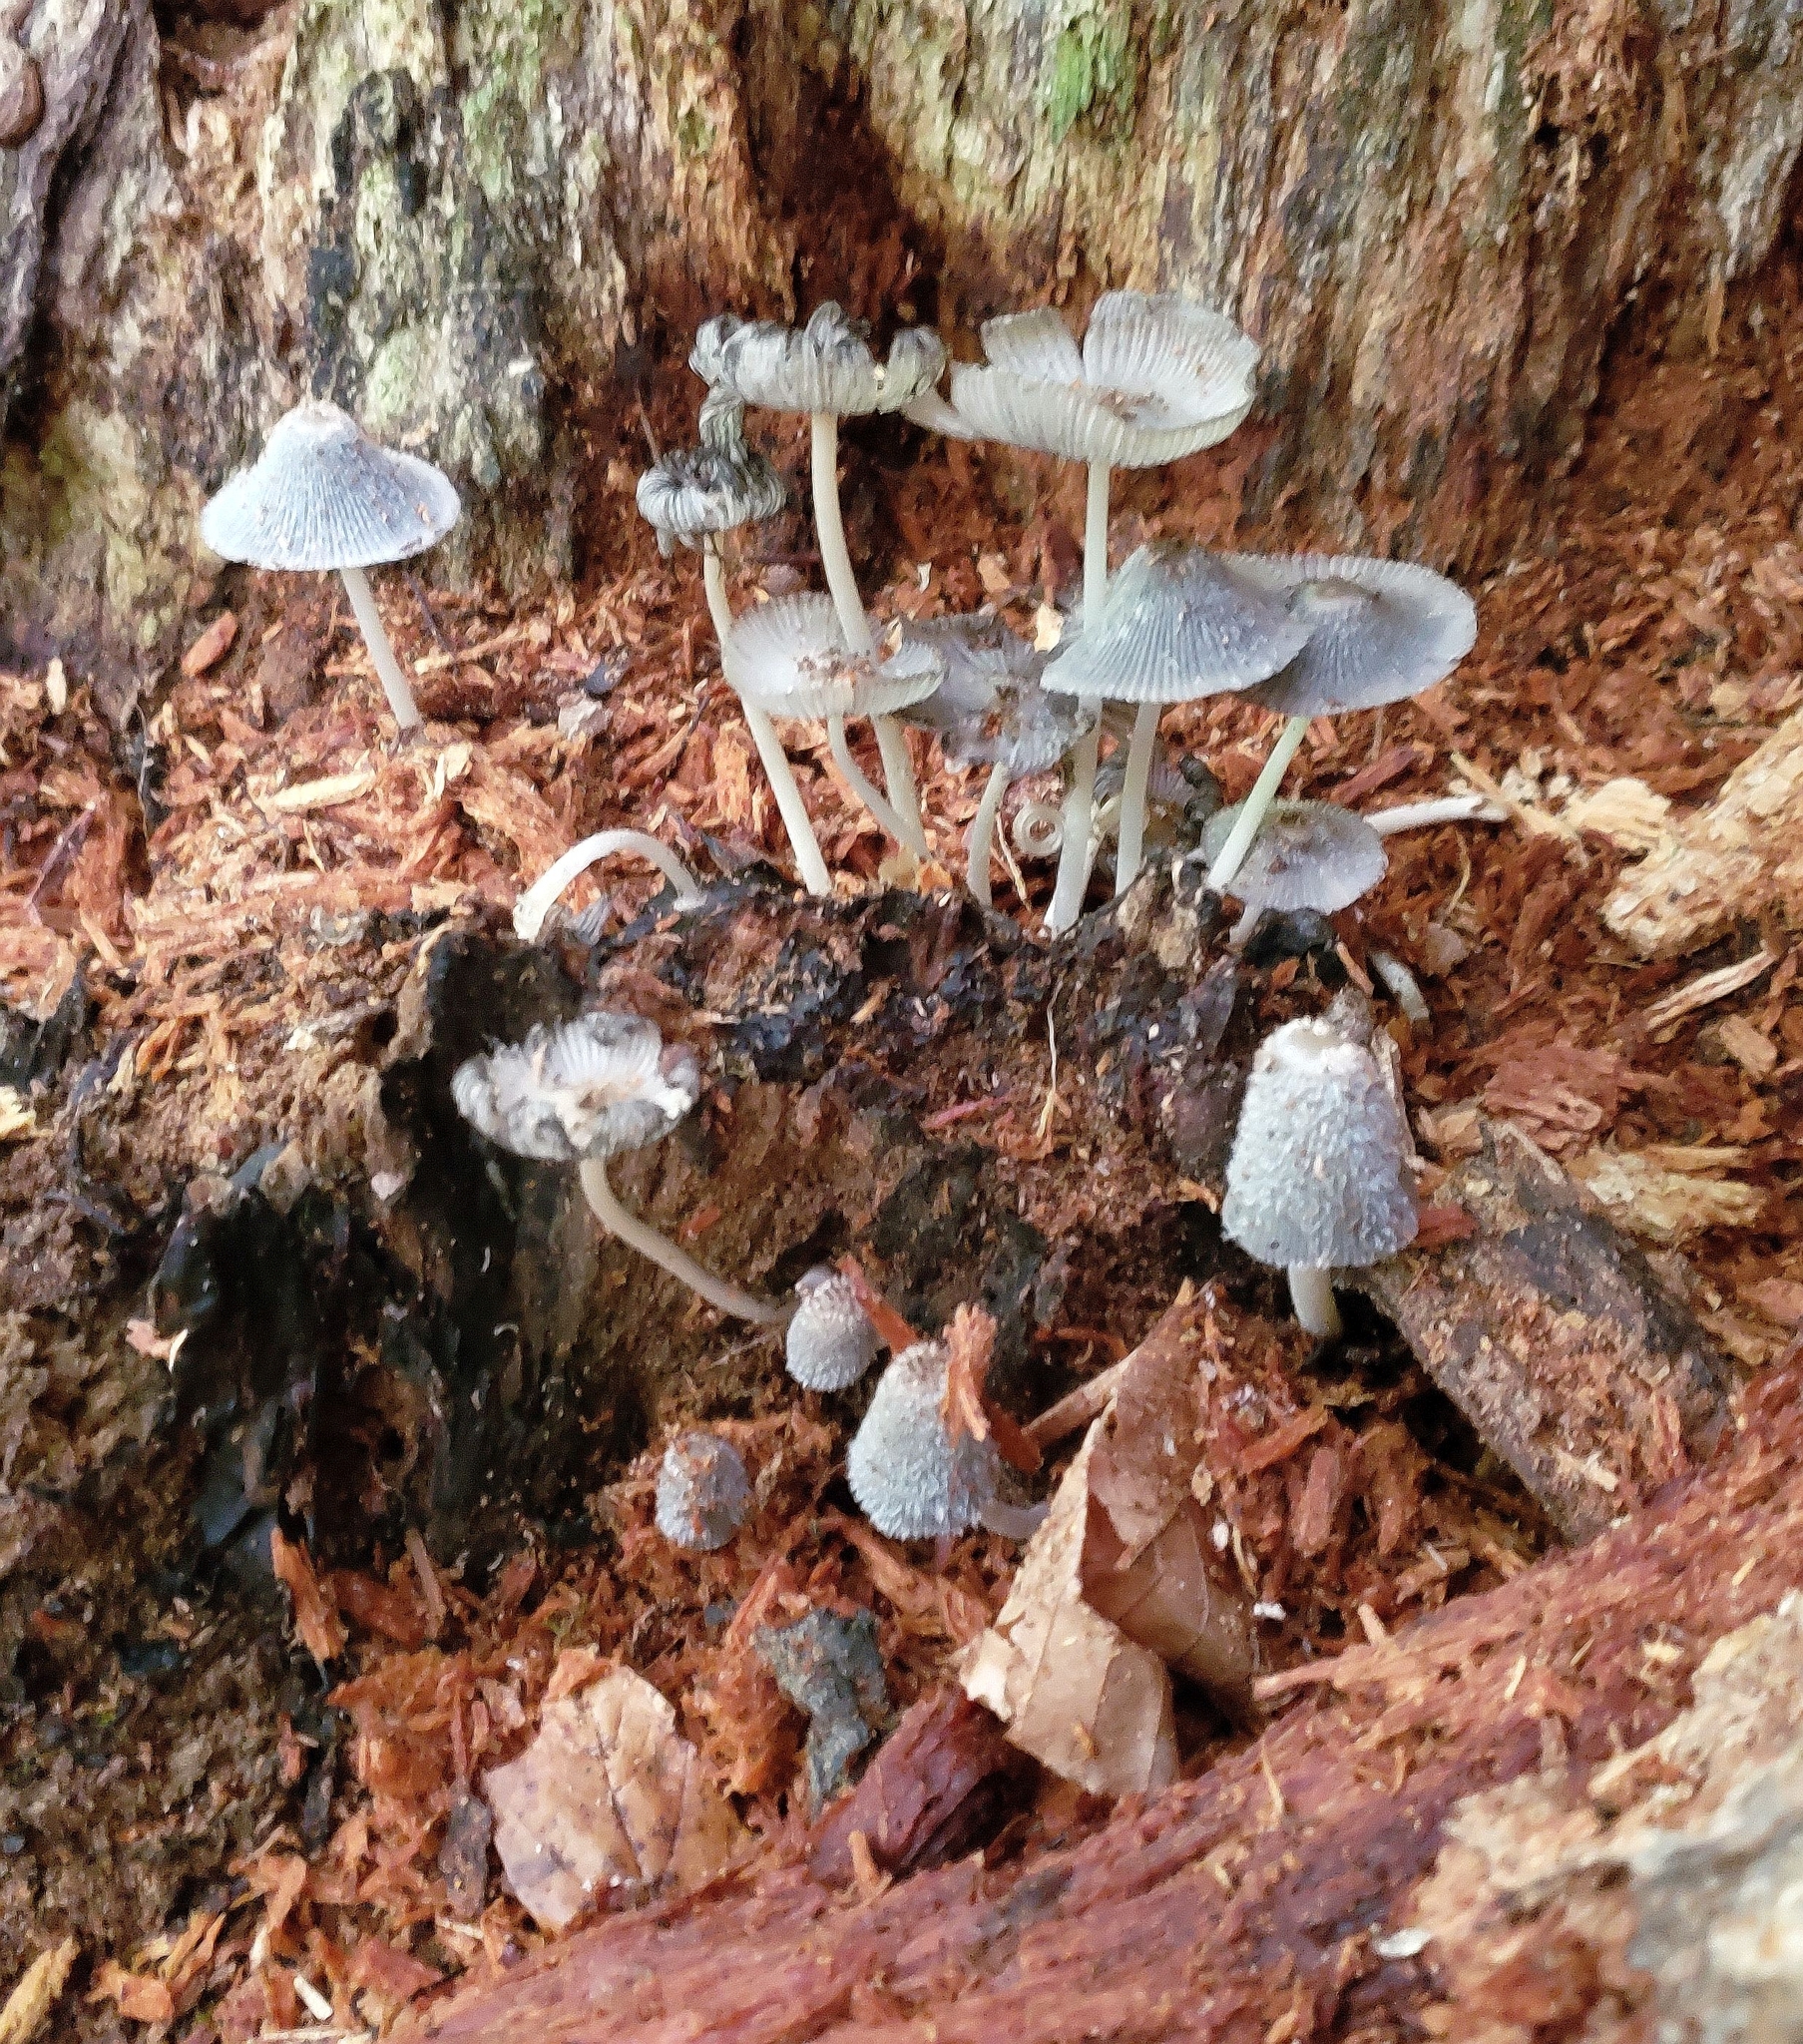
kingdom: Fungi
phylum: Basidiomycota
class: Agaricomycetes
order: Agaricales
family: Psathyrellaceae
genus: Coprinopsis
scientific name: Coprinopsis lagopus
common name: Hare'sfoot inkcap
